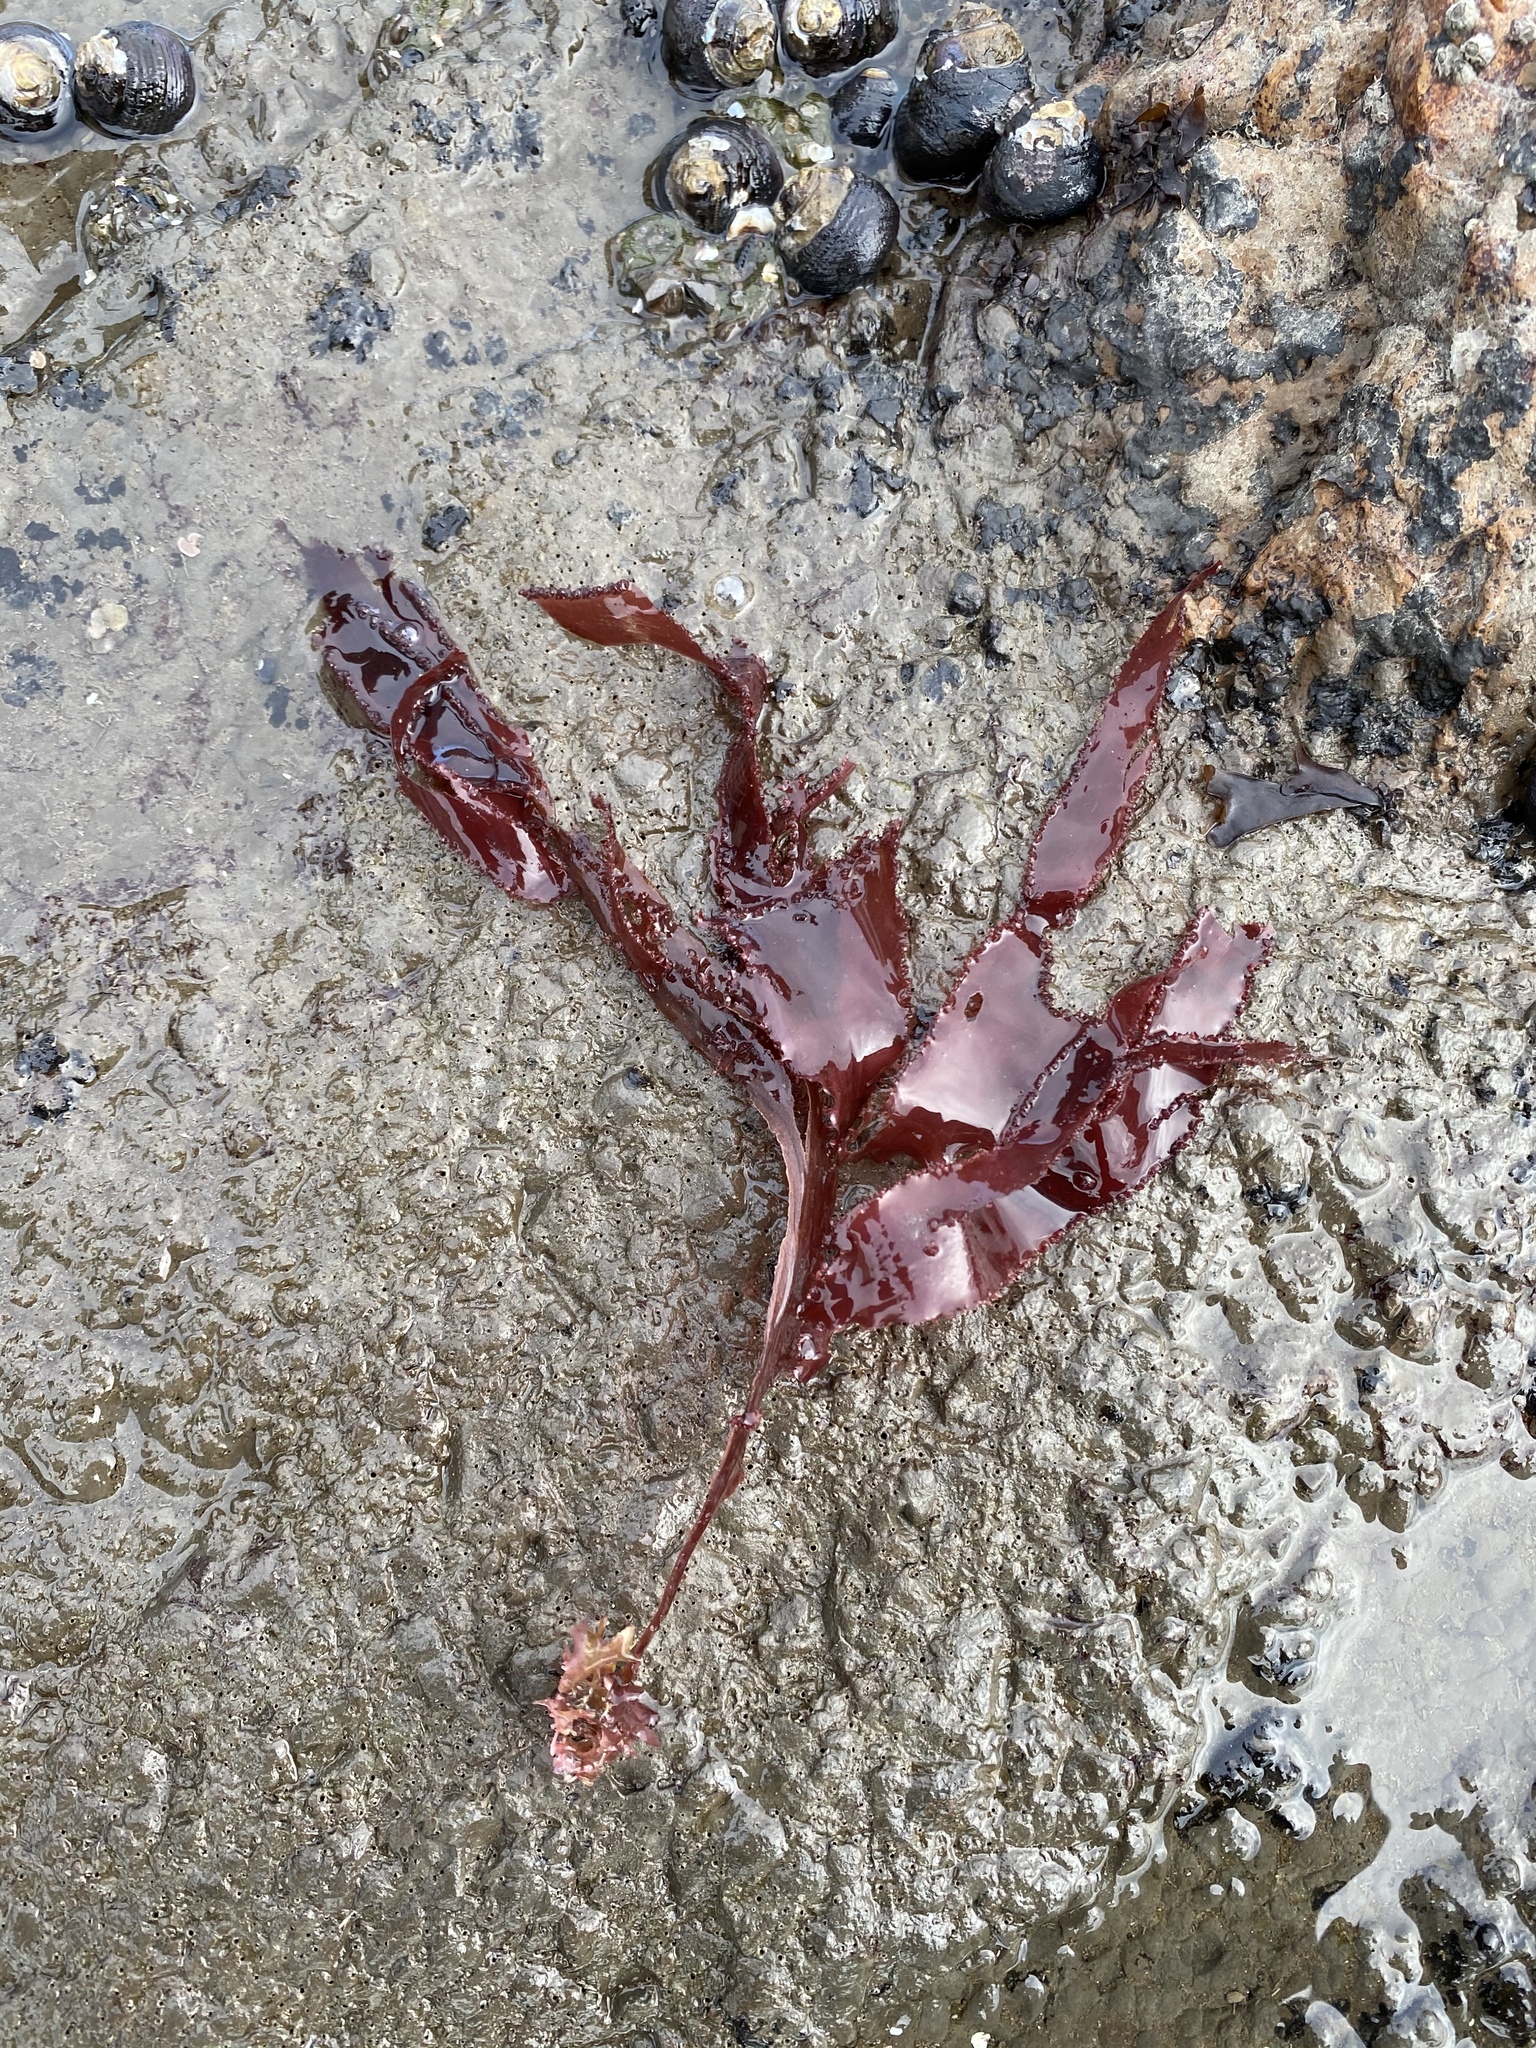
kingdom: Plantae
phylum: Rhodophyta
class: Florideophyceae
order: Ceramiales
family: Delesseriaceae
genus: Cryptopleura
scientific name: Cryptopleura ruprechtiana
